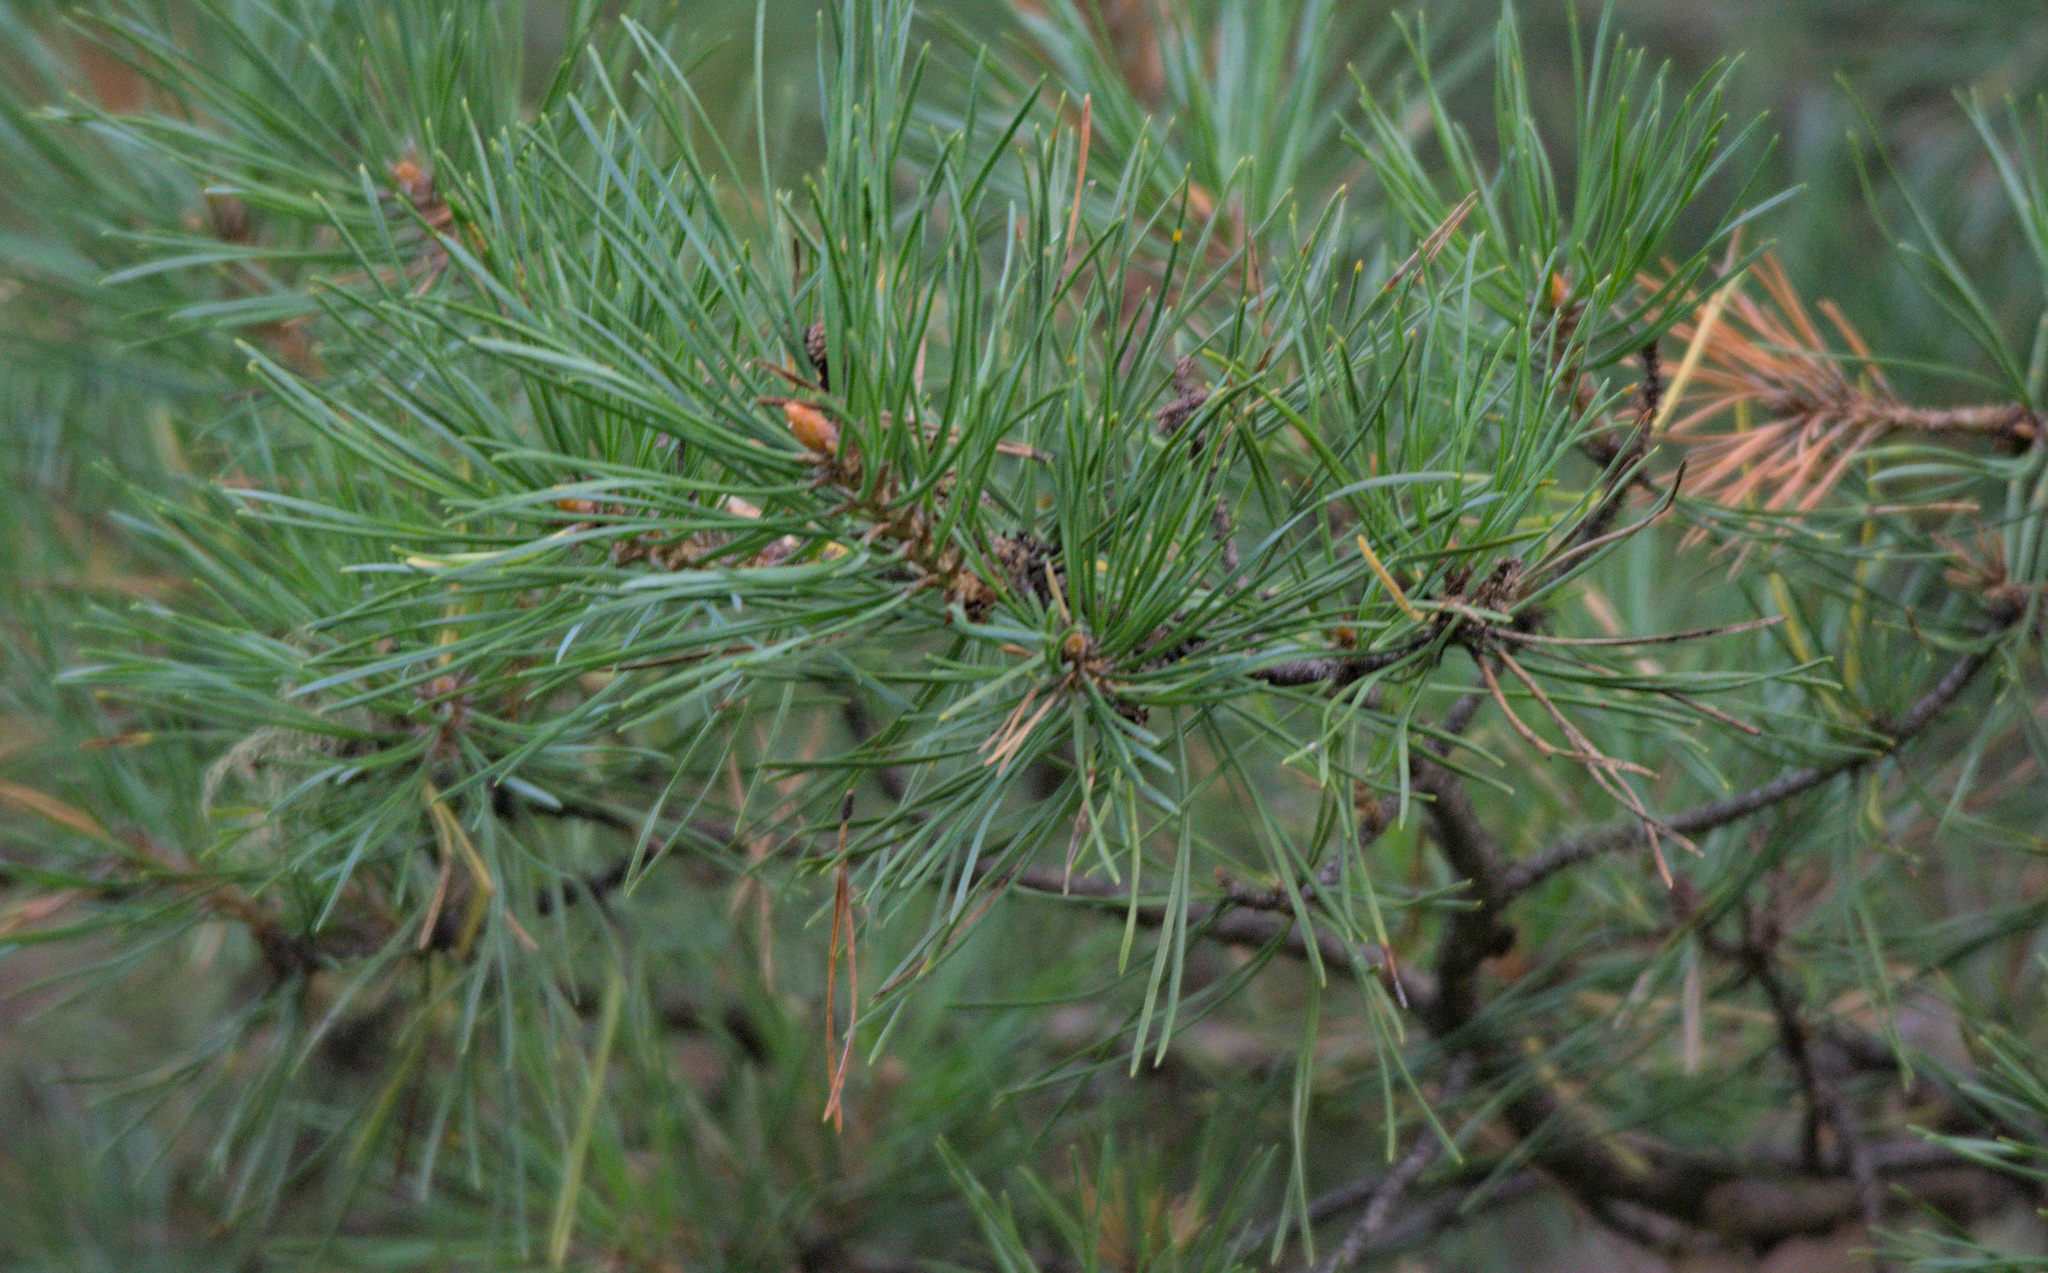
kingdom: Plantae
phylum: Tracheophyta
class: Pinopsida
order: Pinales
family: Pinaceae
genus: Pinus
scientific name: Pinus sylvestris
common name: Scots pine
